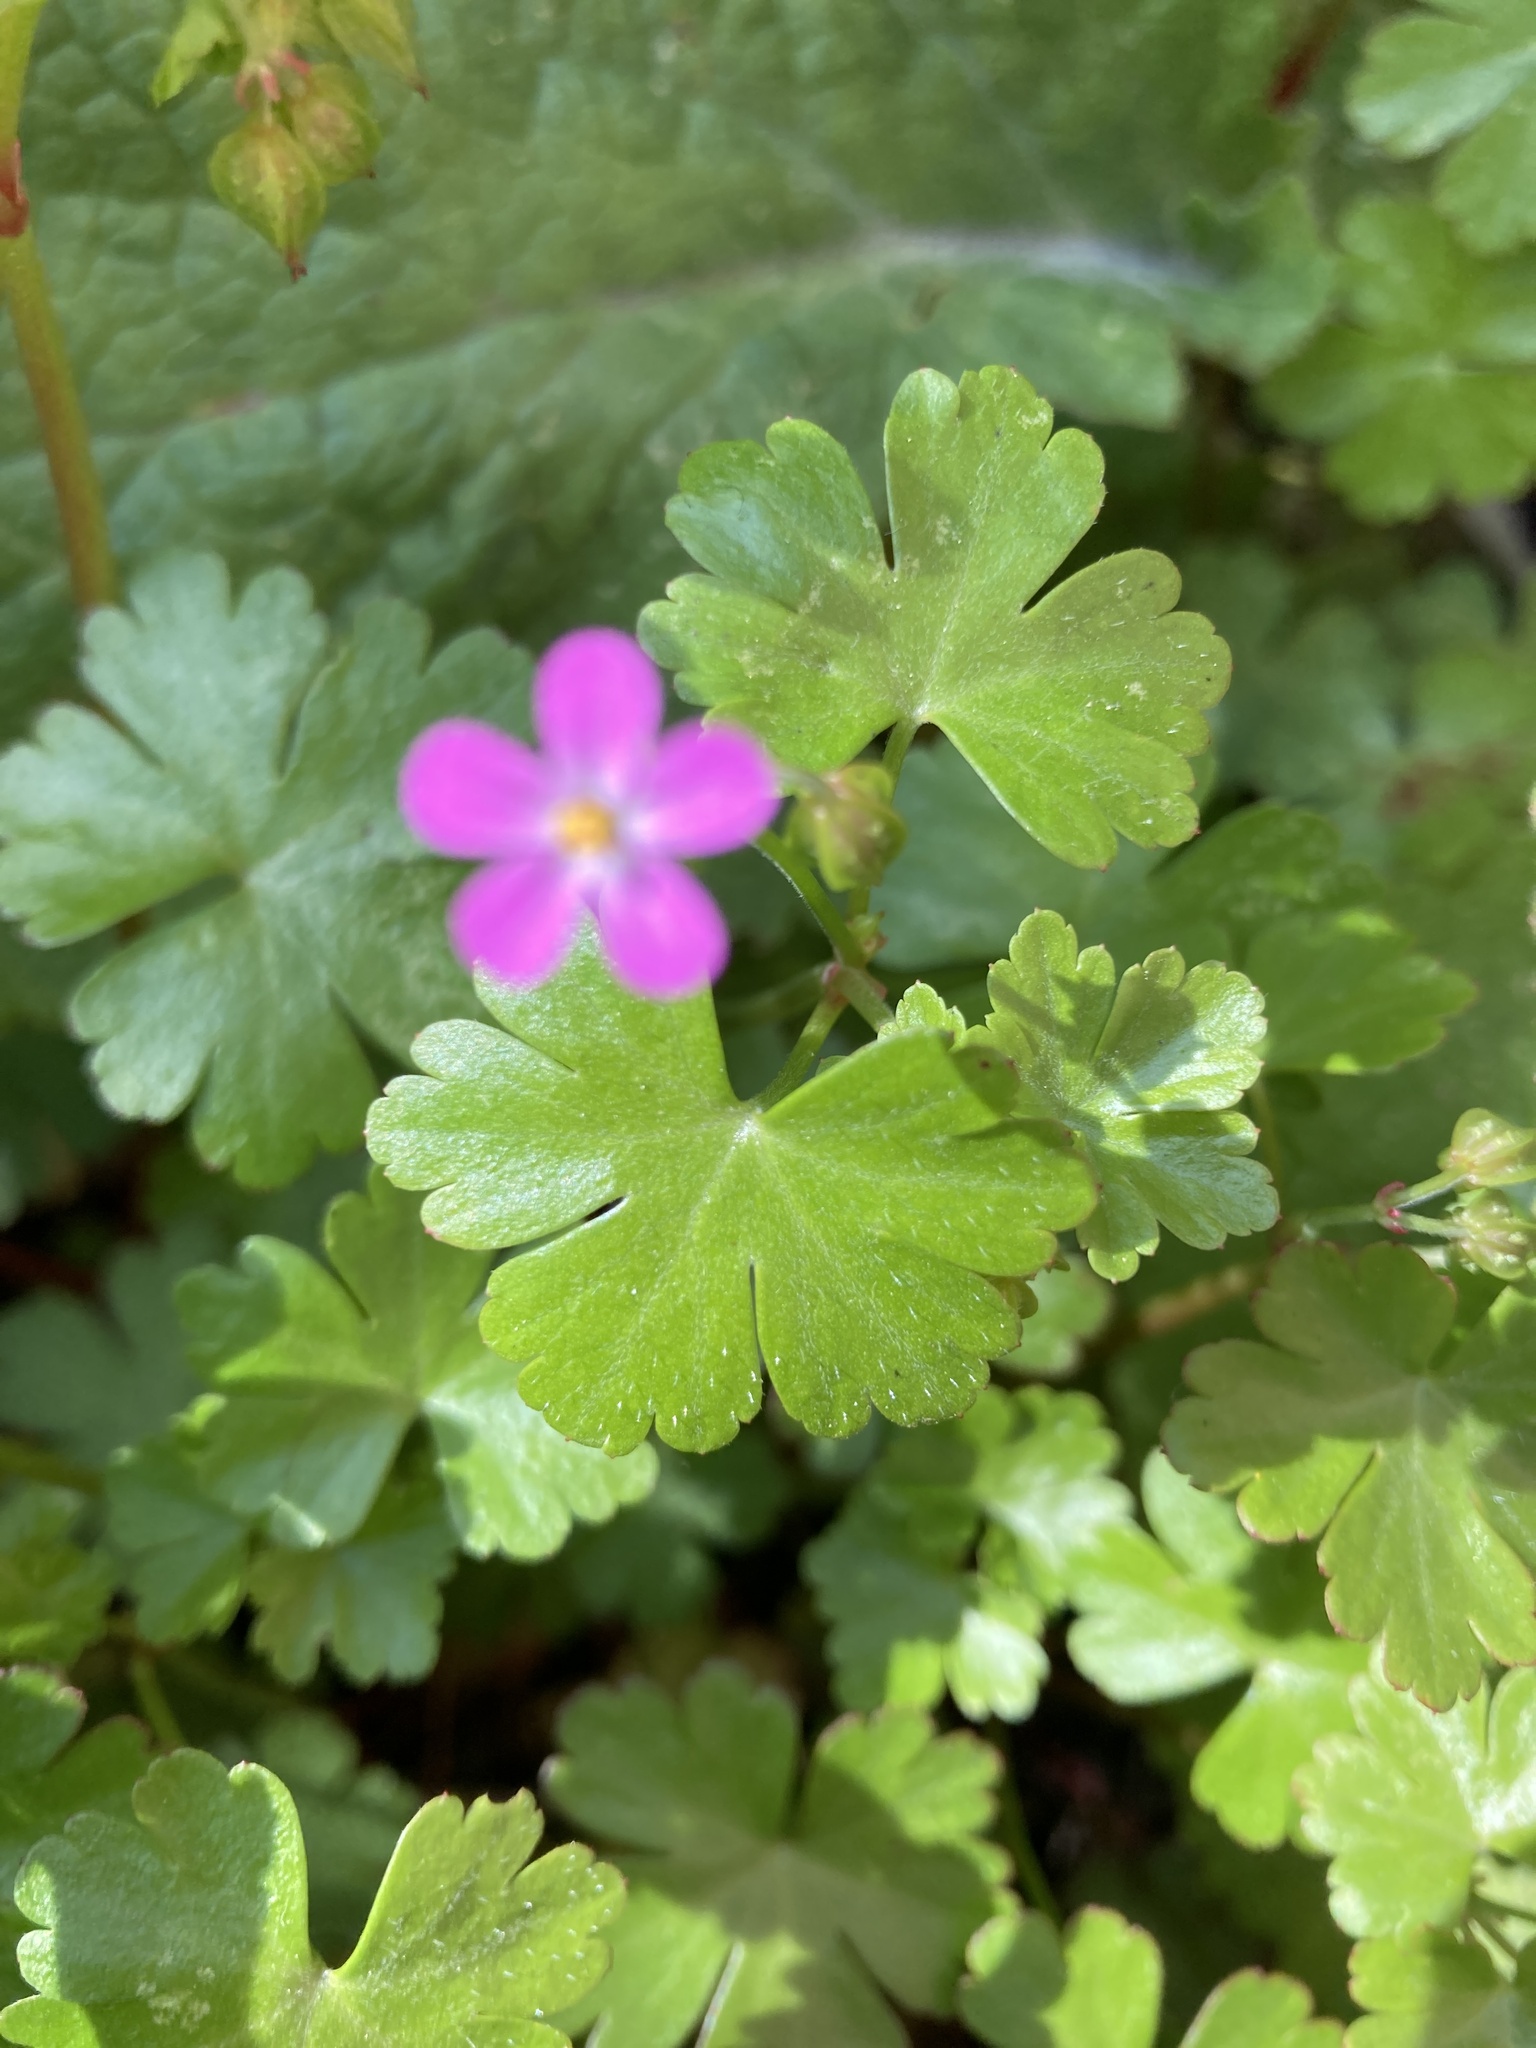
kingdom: Plantae
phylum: Tracheophyta
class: Magnoliopsida
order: Geraniales
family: Geraniaceae
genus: Geranium
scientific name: Geranium lucidum
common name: Shining crane's-bill
